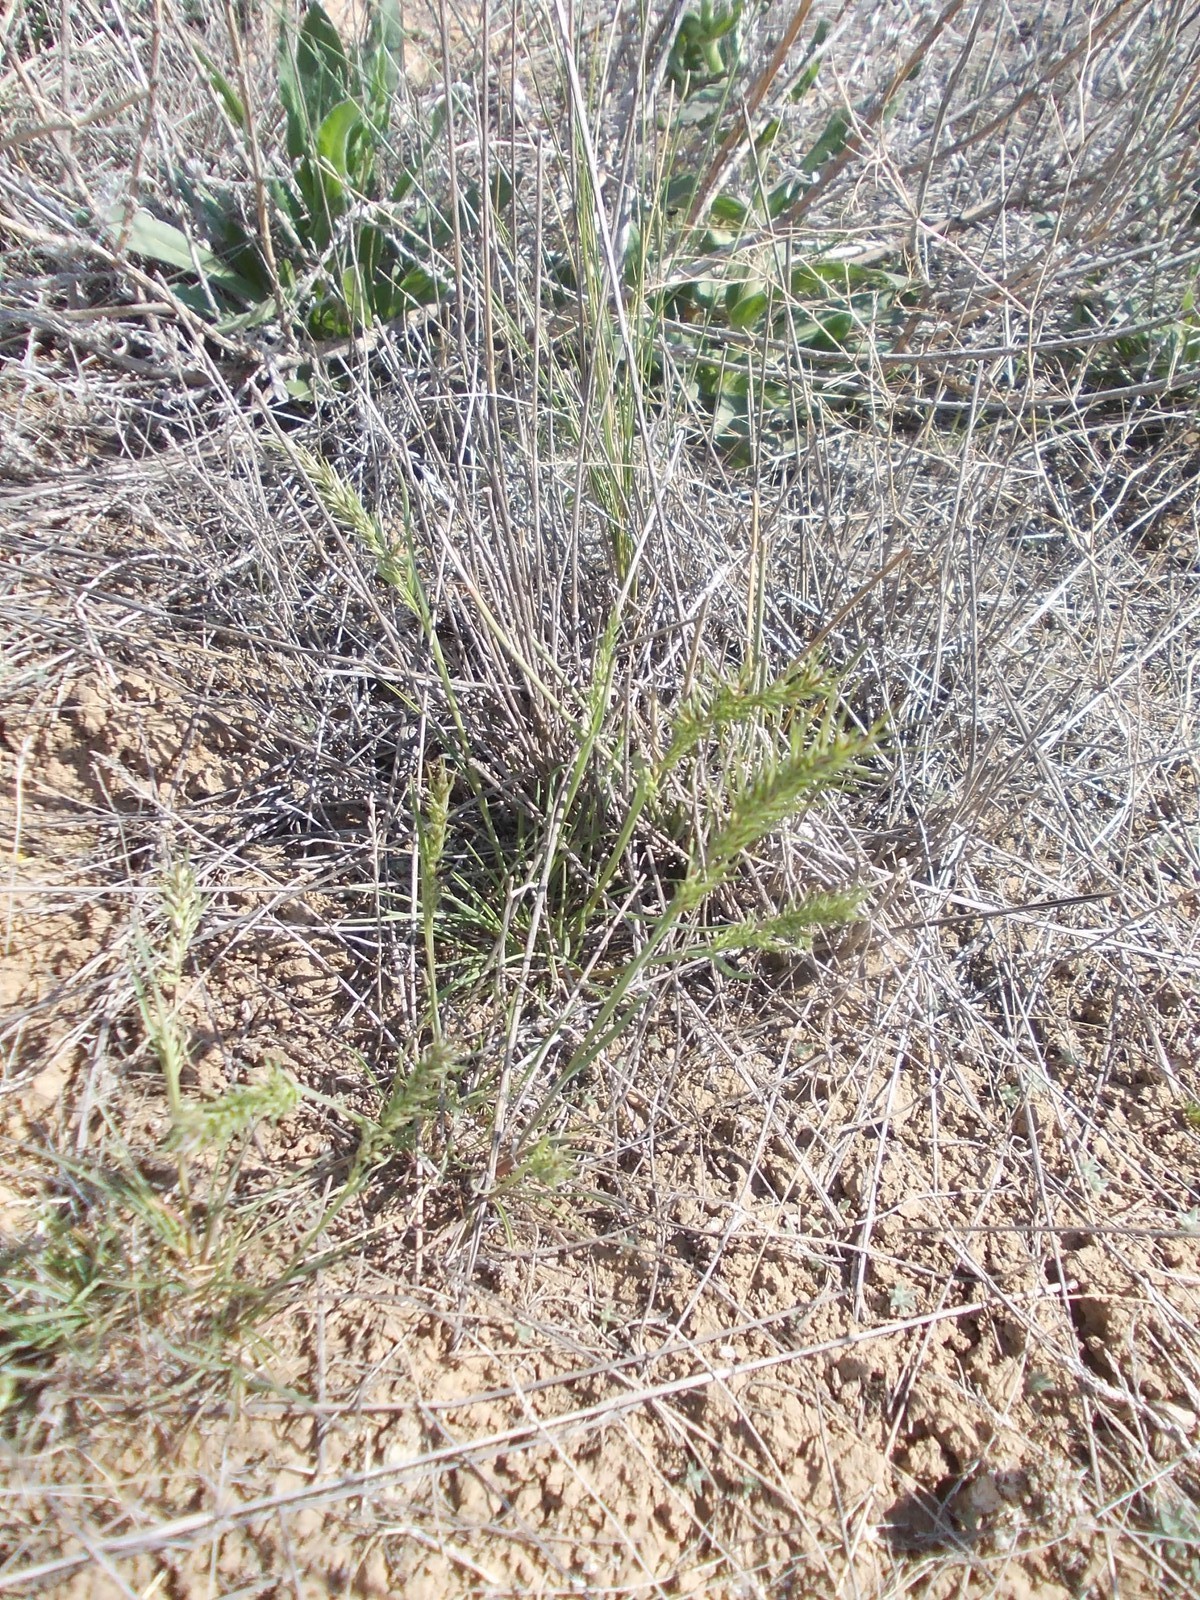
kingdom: Plantae
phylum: Tracheophyta
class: Liliopsida
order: Poales
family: Poaceae
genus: Poa
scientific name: Poa bulbosa
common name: Bulbous bluegrass
